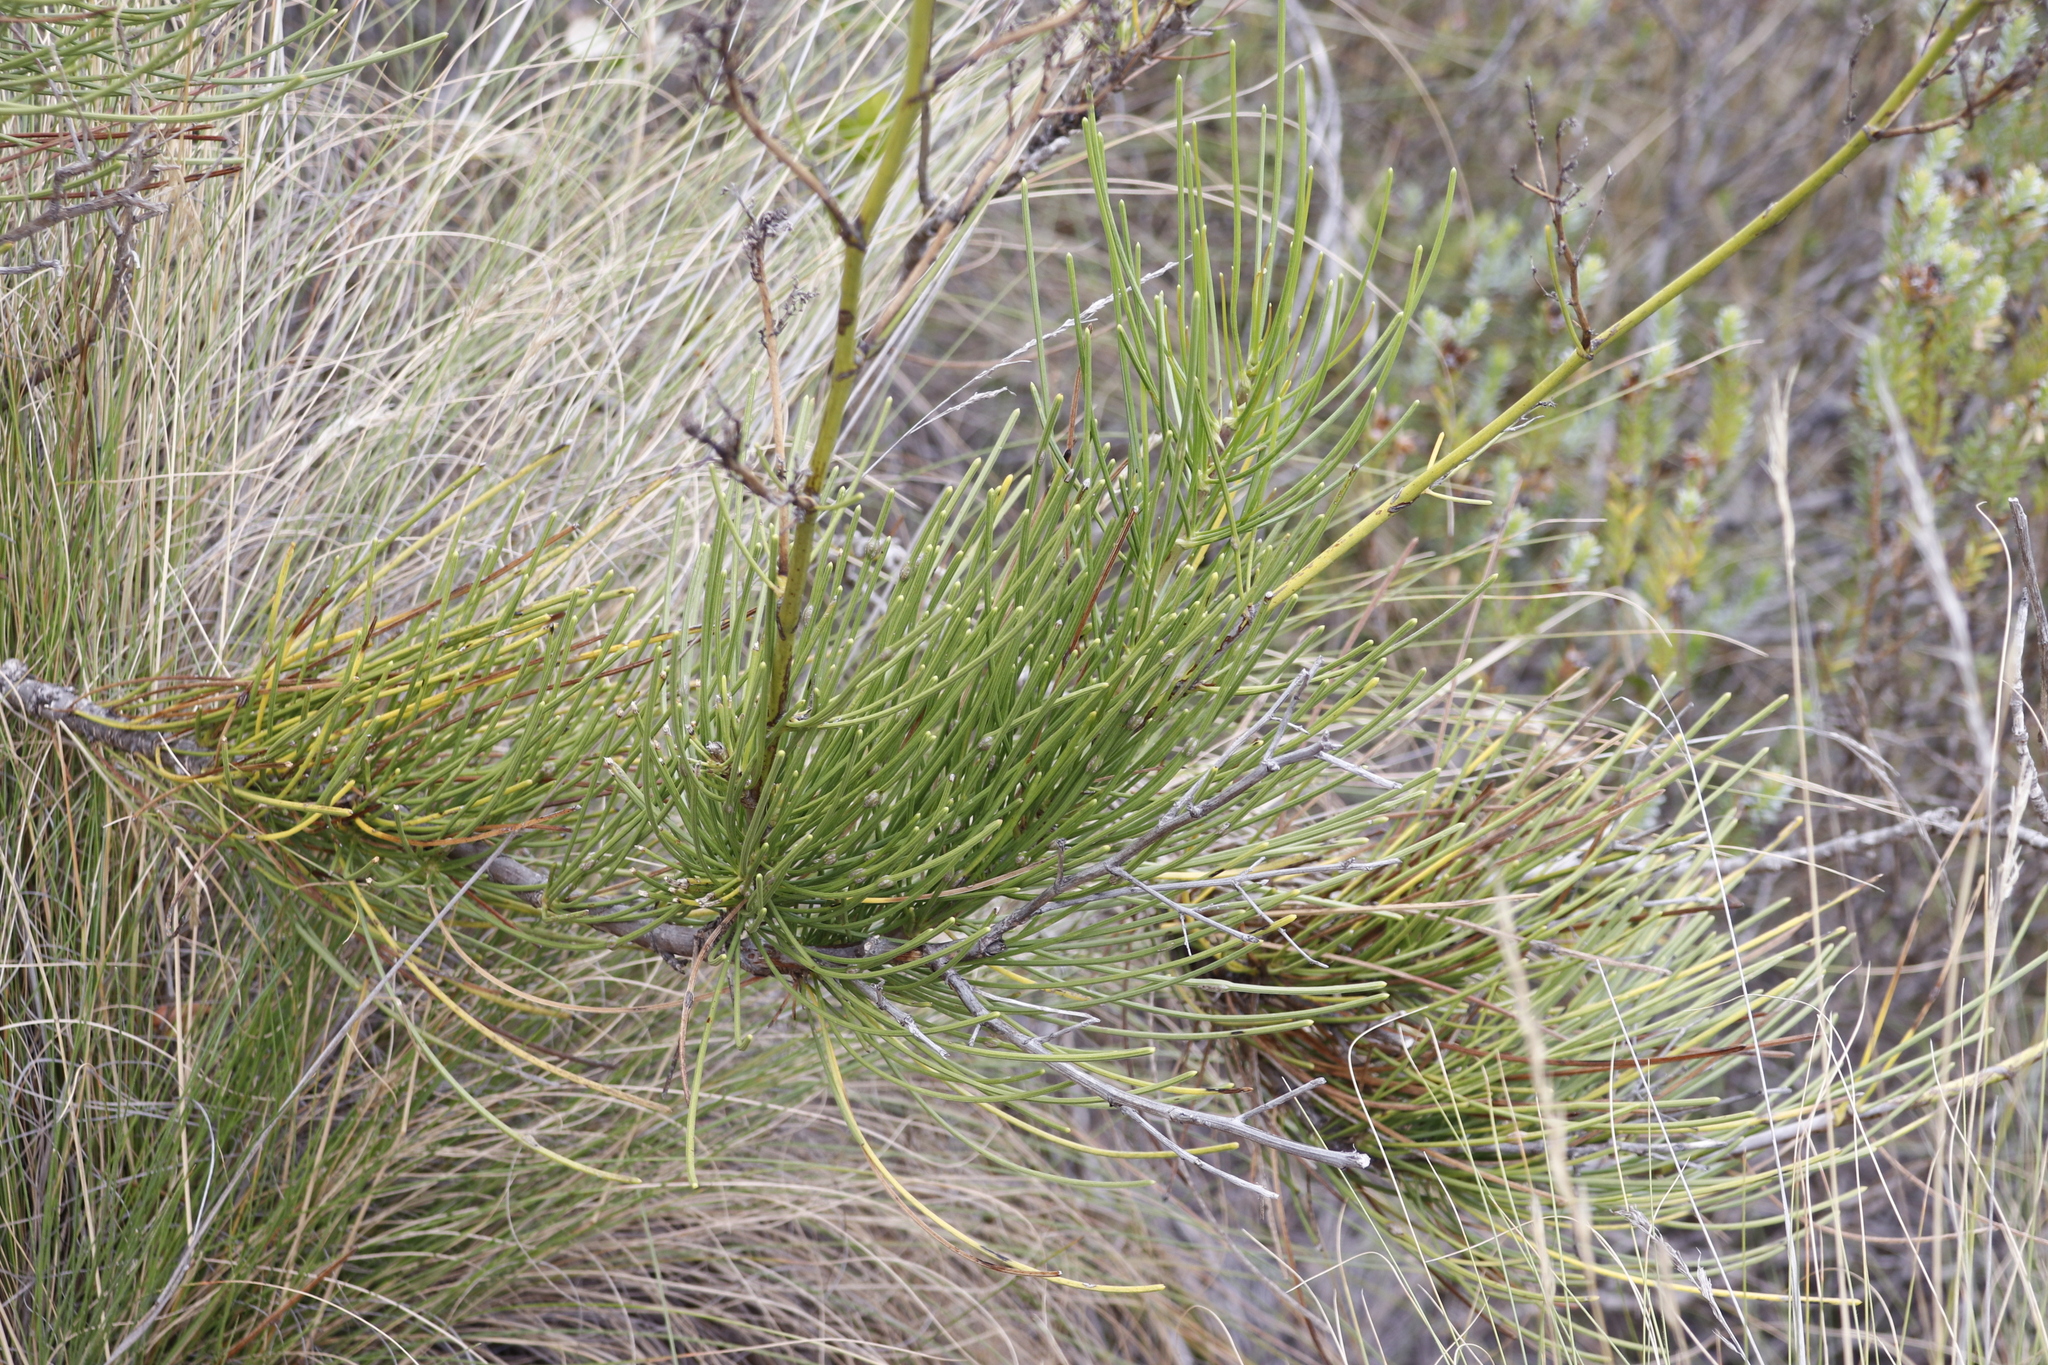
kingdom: Plantae
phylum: Tracheophyta
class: Magnoliopsida
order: Apiales
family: Apiaceae
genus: Anginon
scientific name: Anginon difforme
